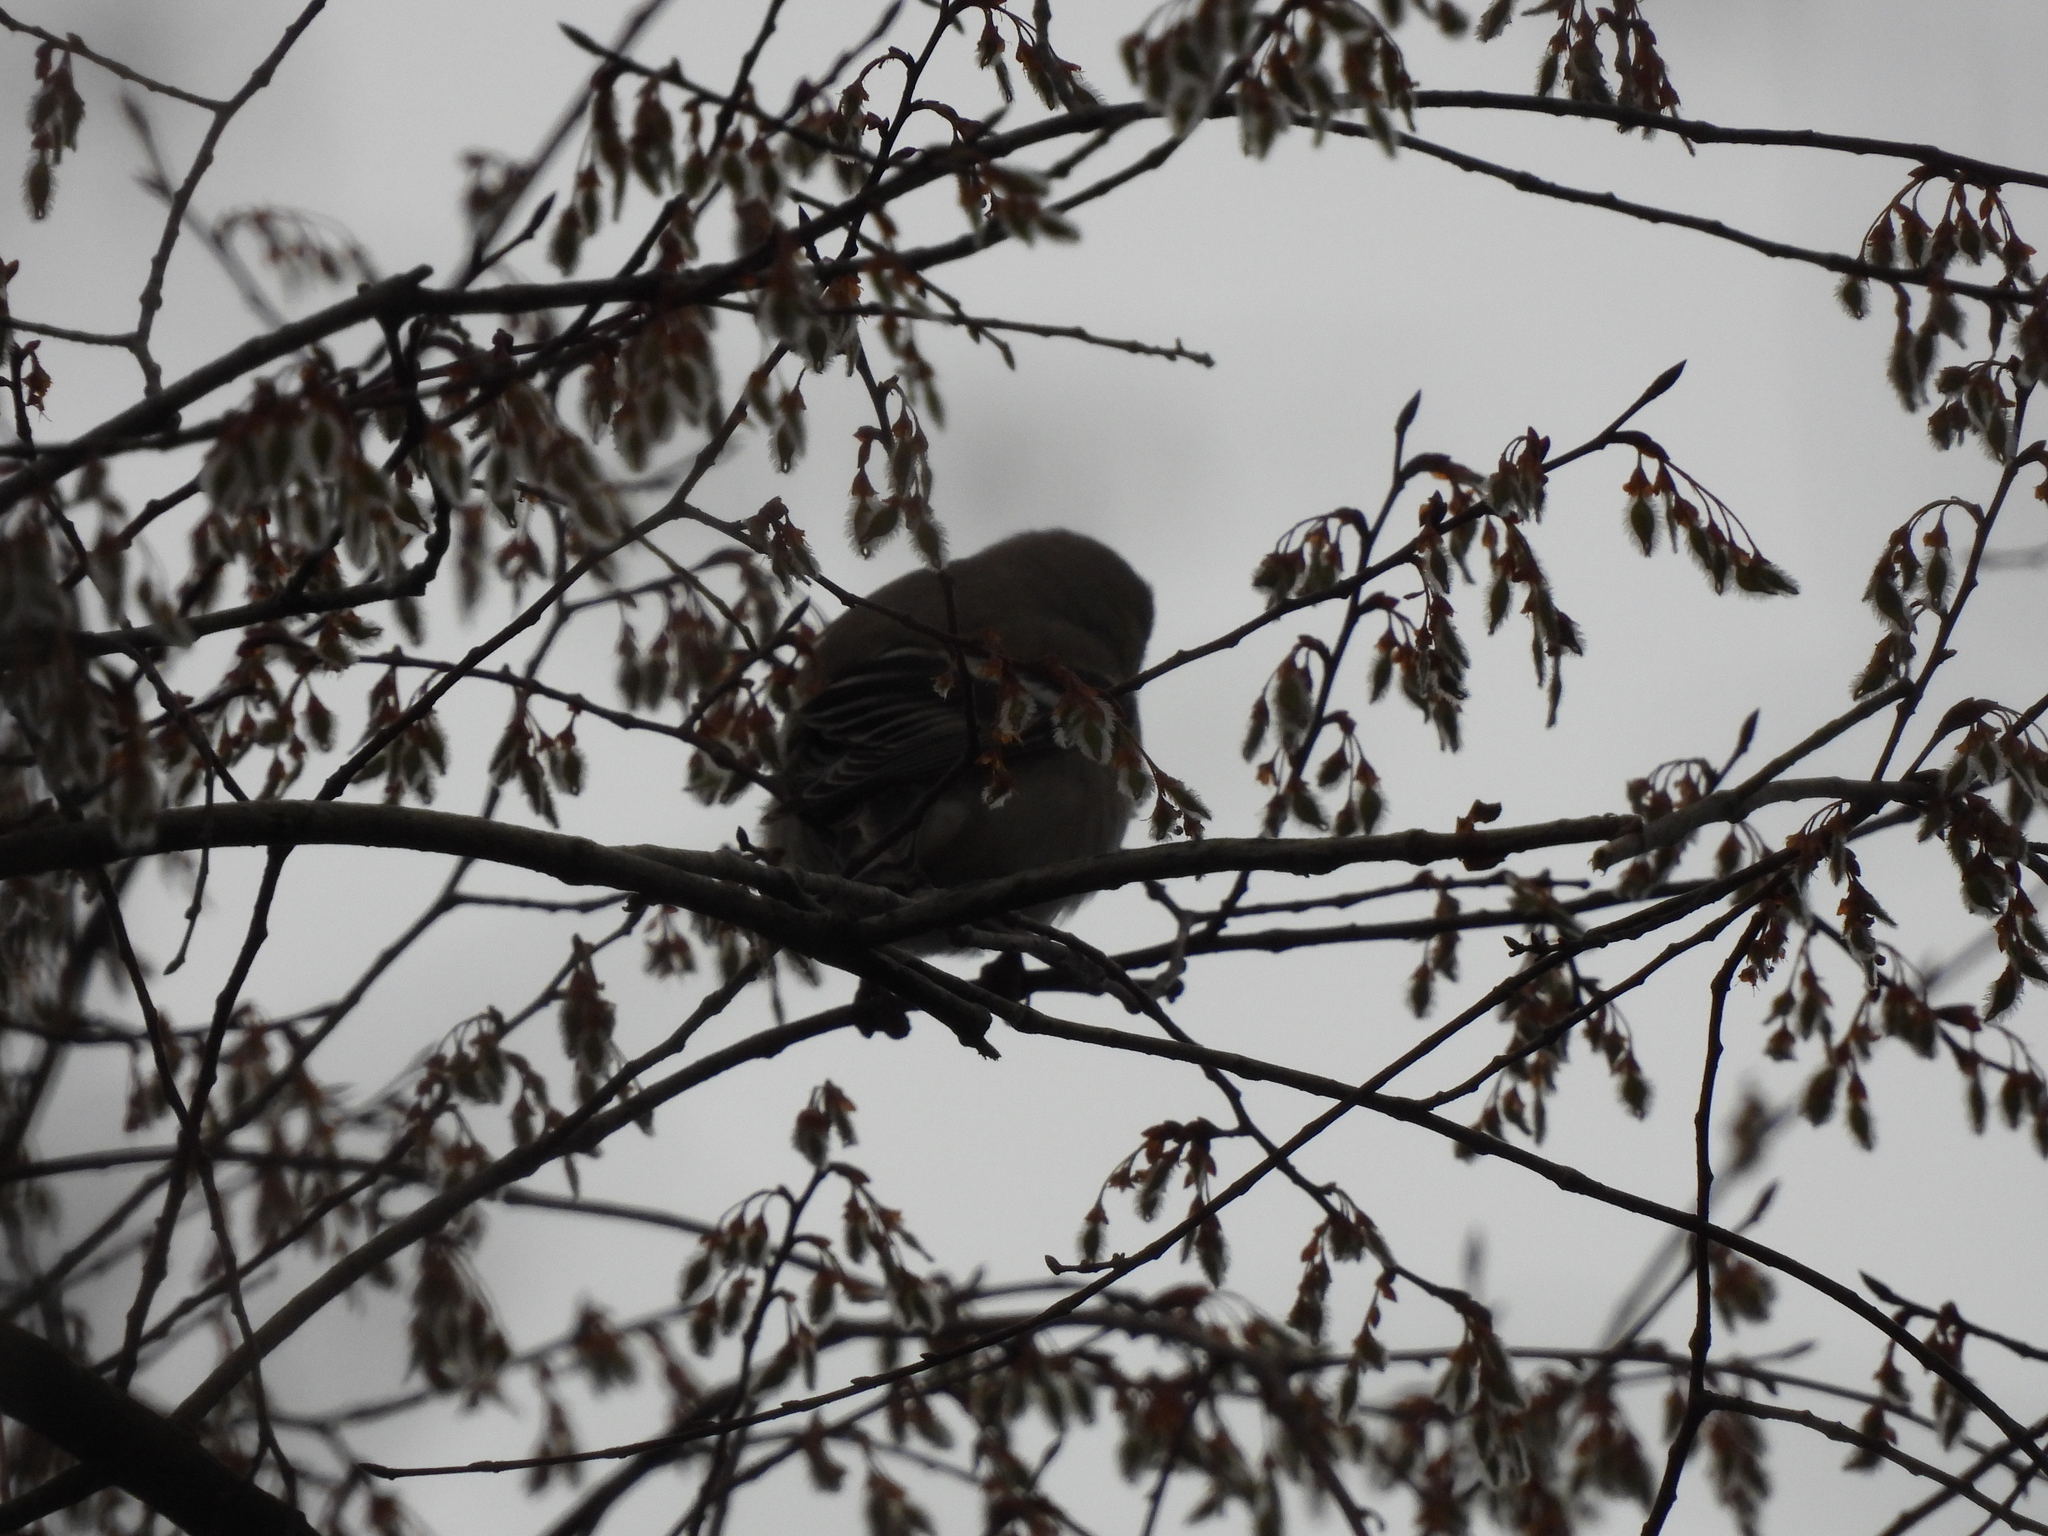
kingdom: Animalia
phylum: Chordata
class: Aves
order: Passeriformes
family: Fringillidae
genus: Spinus
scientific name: Spinus tristis
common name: American goldfinch
